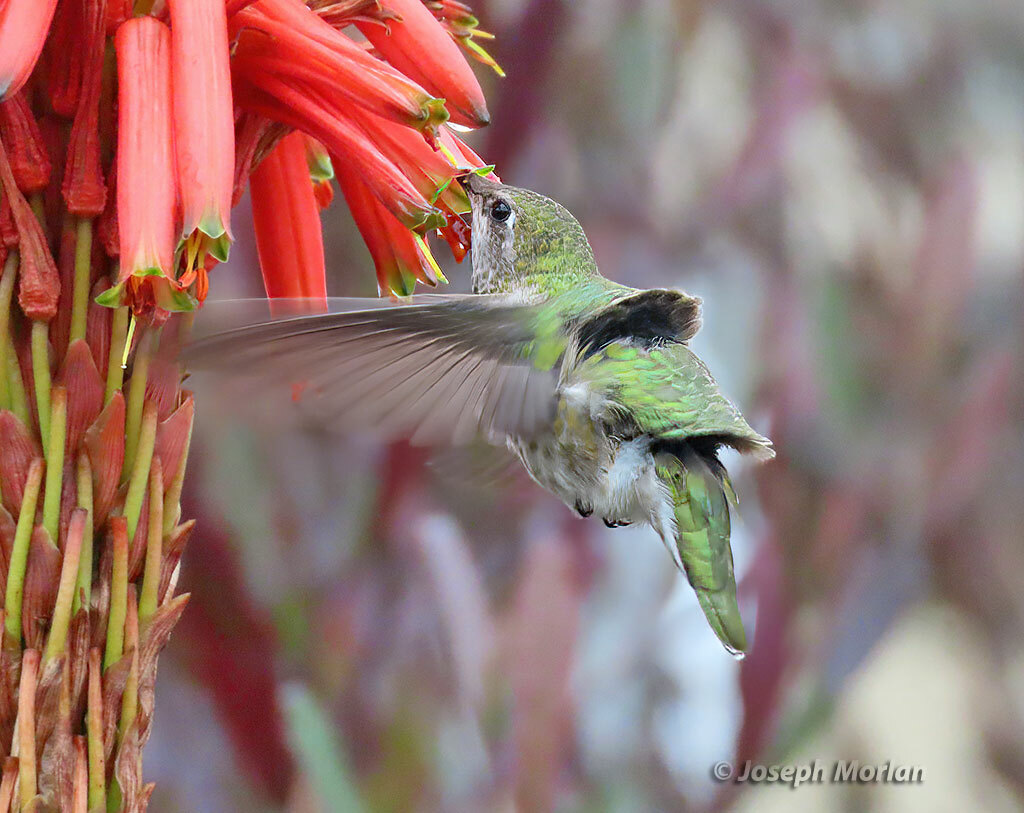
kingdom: Animalia
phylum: Chordata
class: Aves
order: Apodiformes
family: Trochilidae
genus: Calypte
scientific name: Calypte anna
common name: Anna's hummingbird
